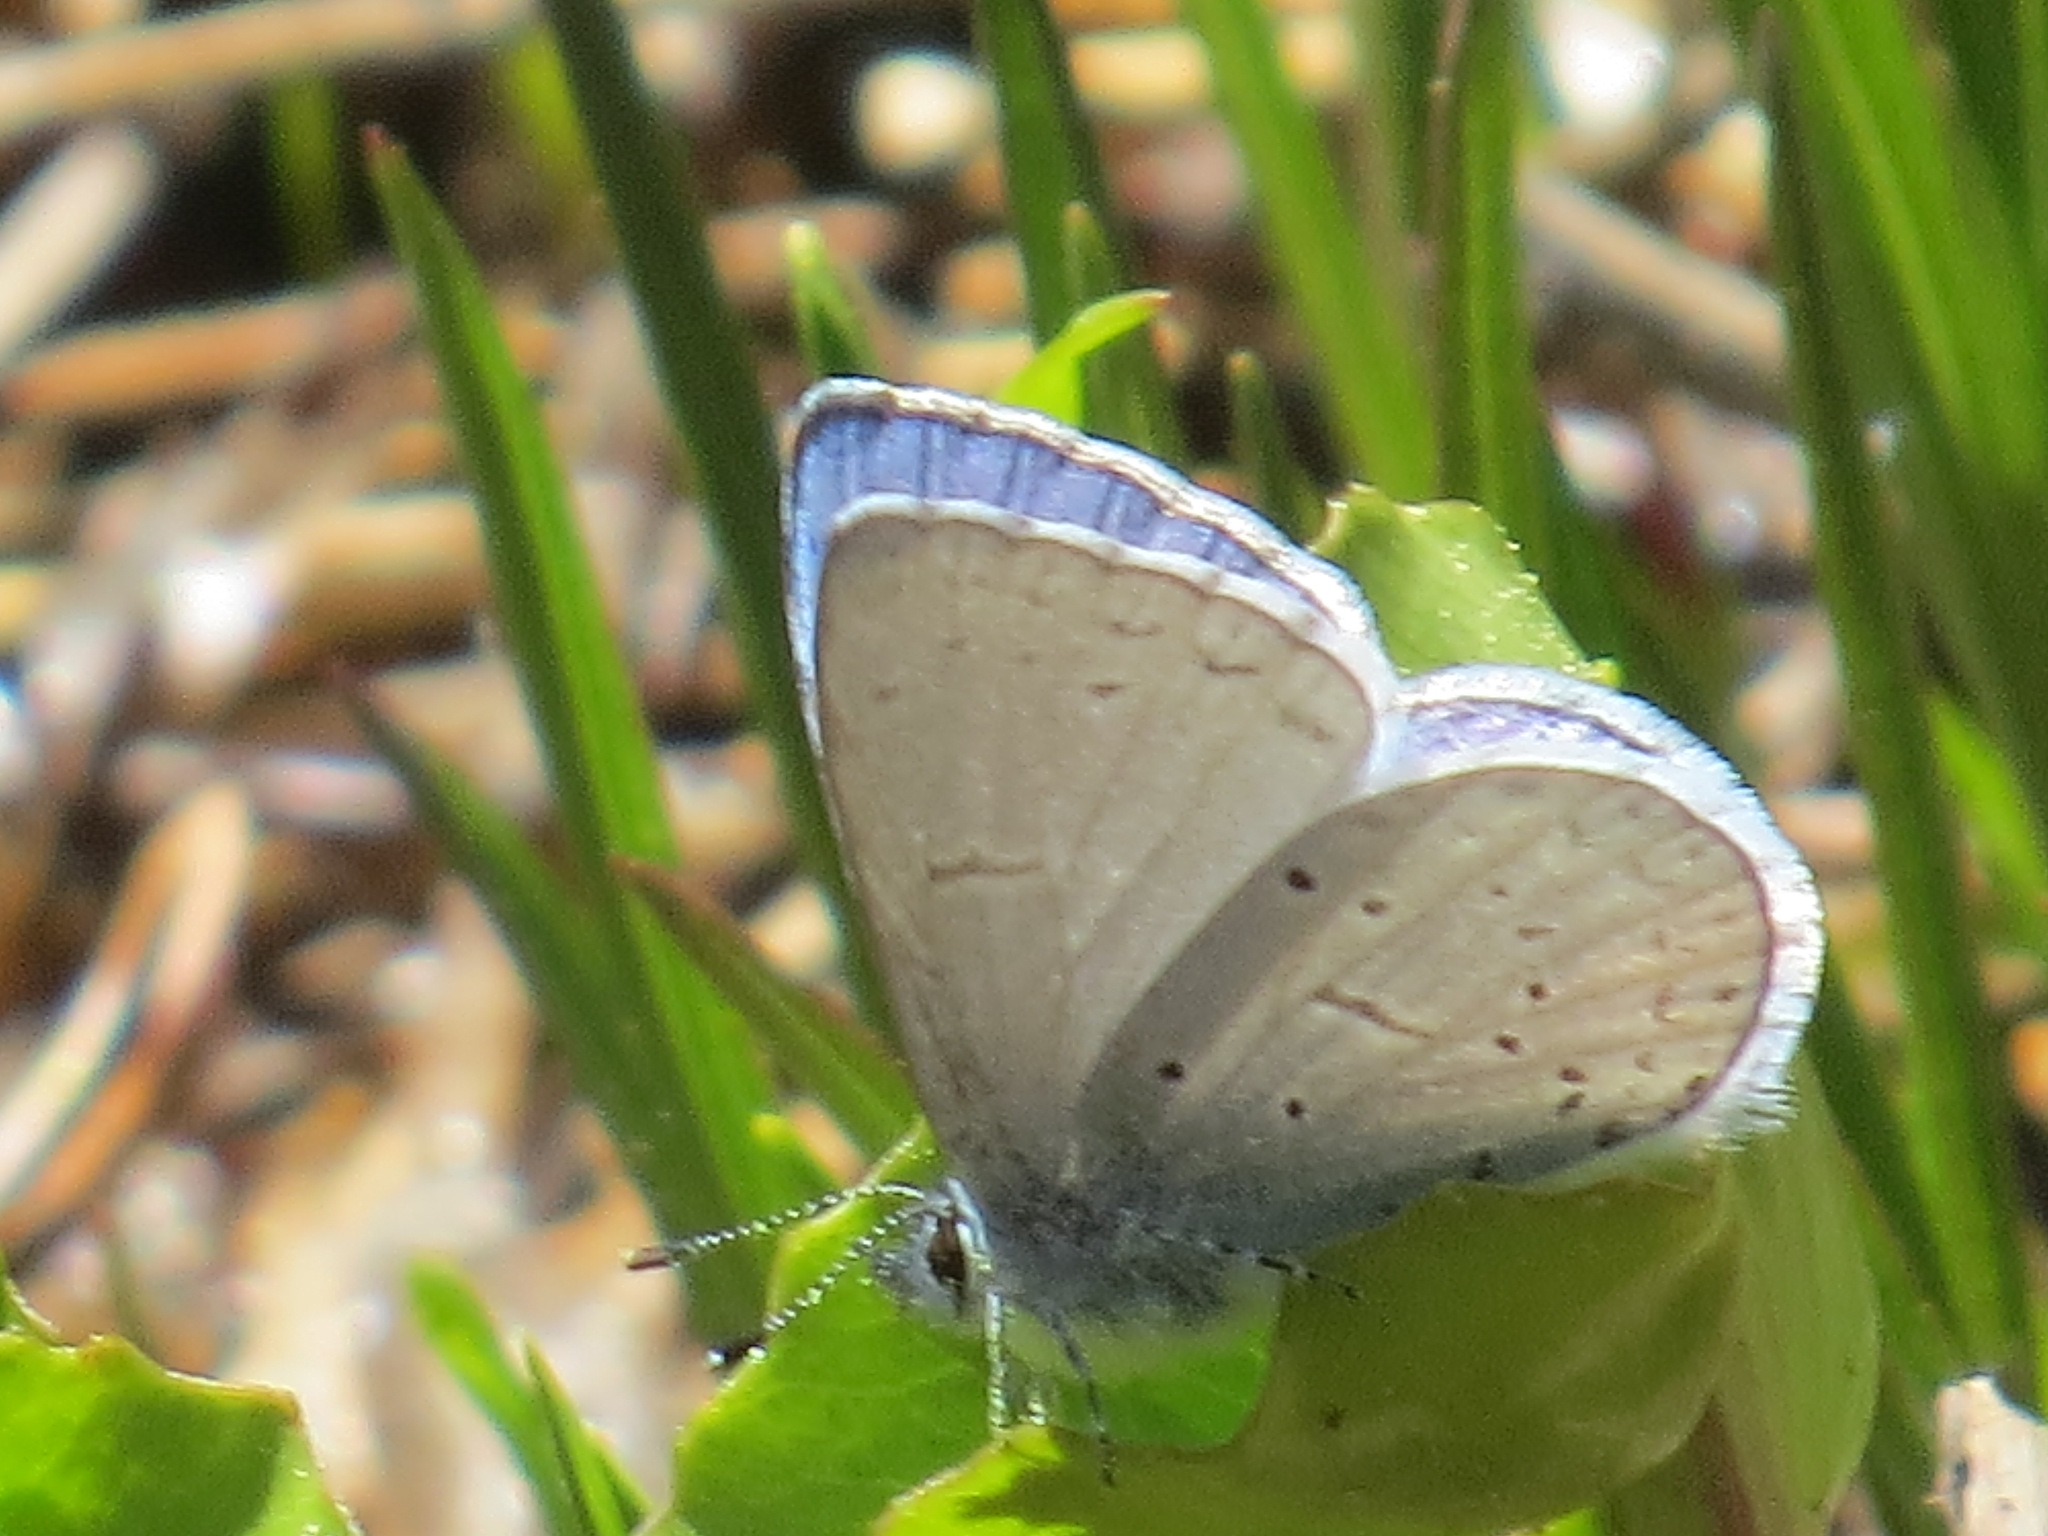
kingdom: Animalia
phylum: Arthropoda
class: Insecta
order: Lepidoptera
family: Lycaenidae
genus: Celastrina
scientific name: Celastrina ladon
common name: Spring azure
